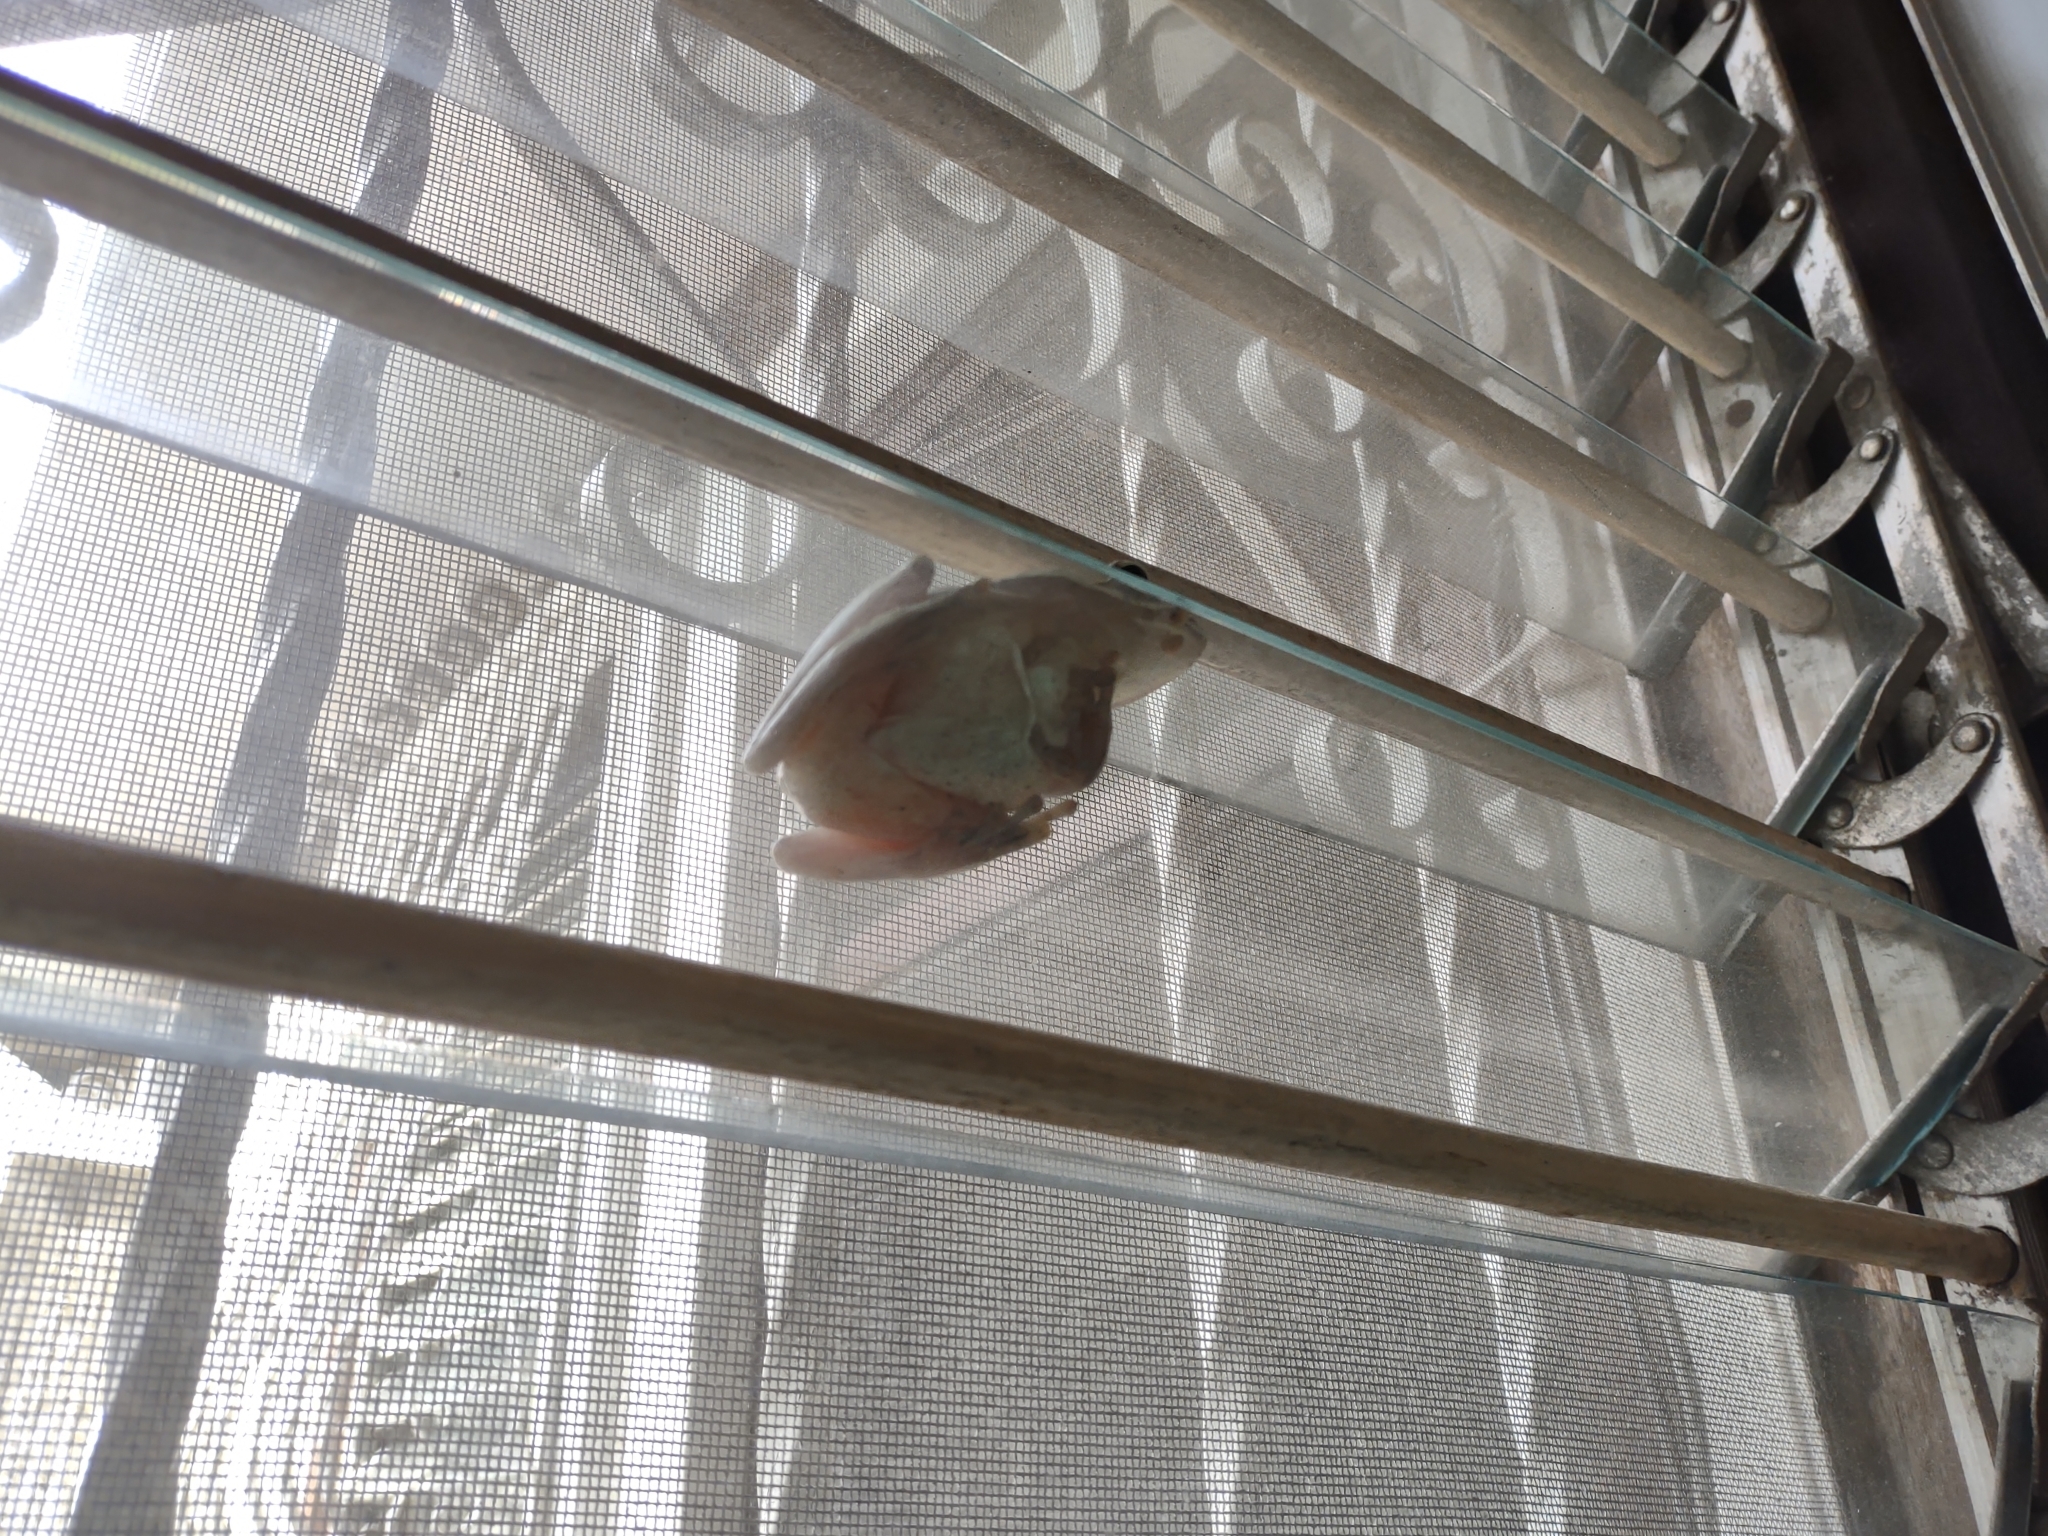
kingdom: Animalia
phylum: Chordata
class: Amphibia
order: Anura
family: Rhacophoridae
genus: Polypedates
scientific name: Polypedates leucomystax
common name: Common tree frog/four-lined tree frog
